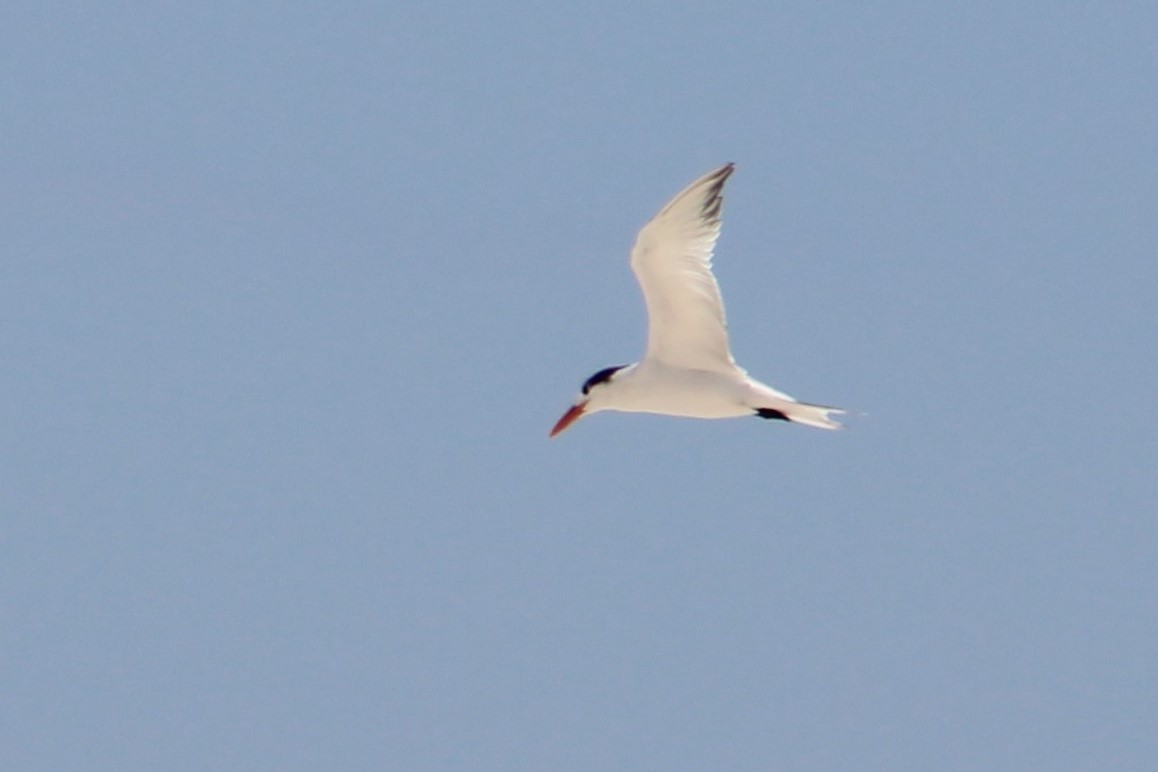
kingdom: Animalia
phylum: Chordata
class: Aves
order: Charadriiformes
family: Laridae
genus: Thalasseus
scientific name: Thalasseus maximus
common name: Royal tern
